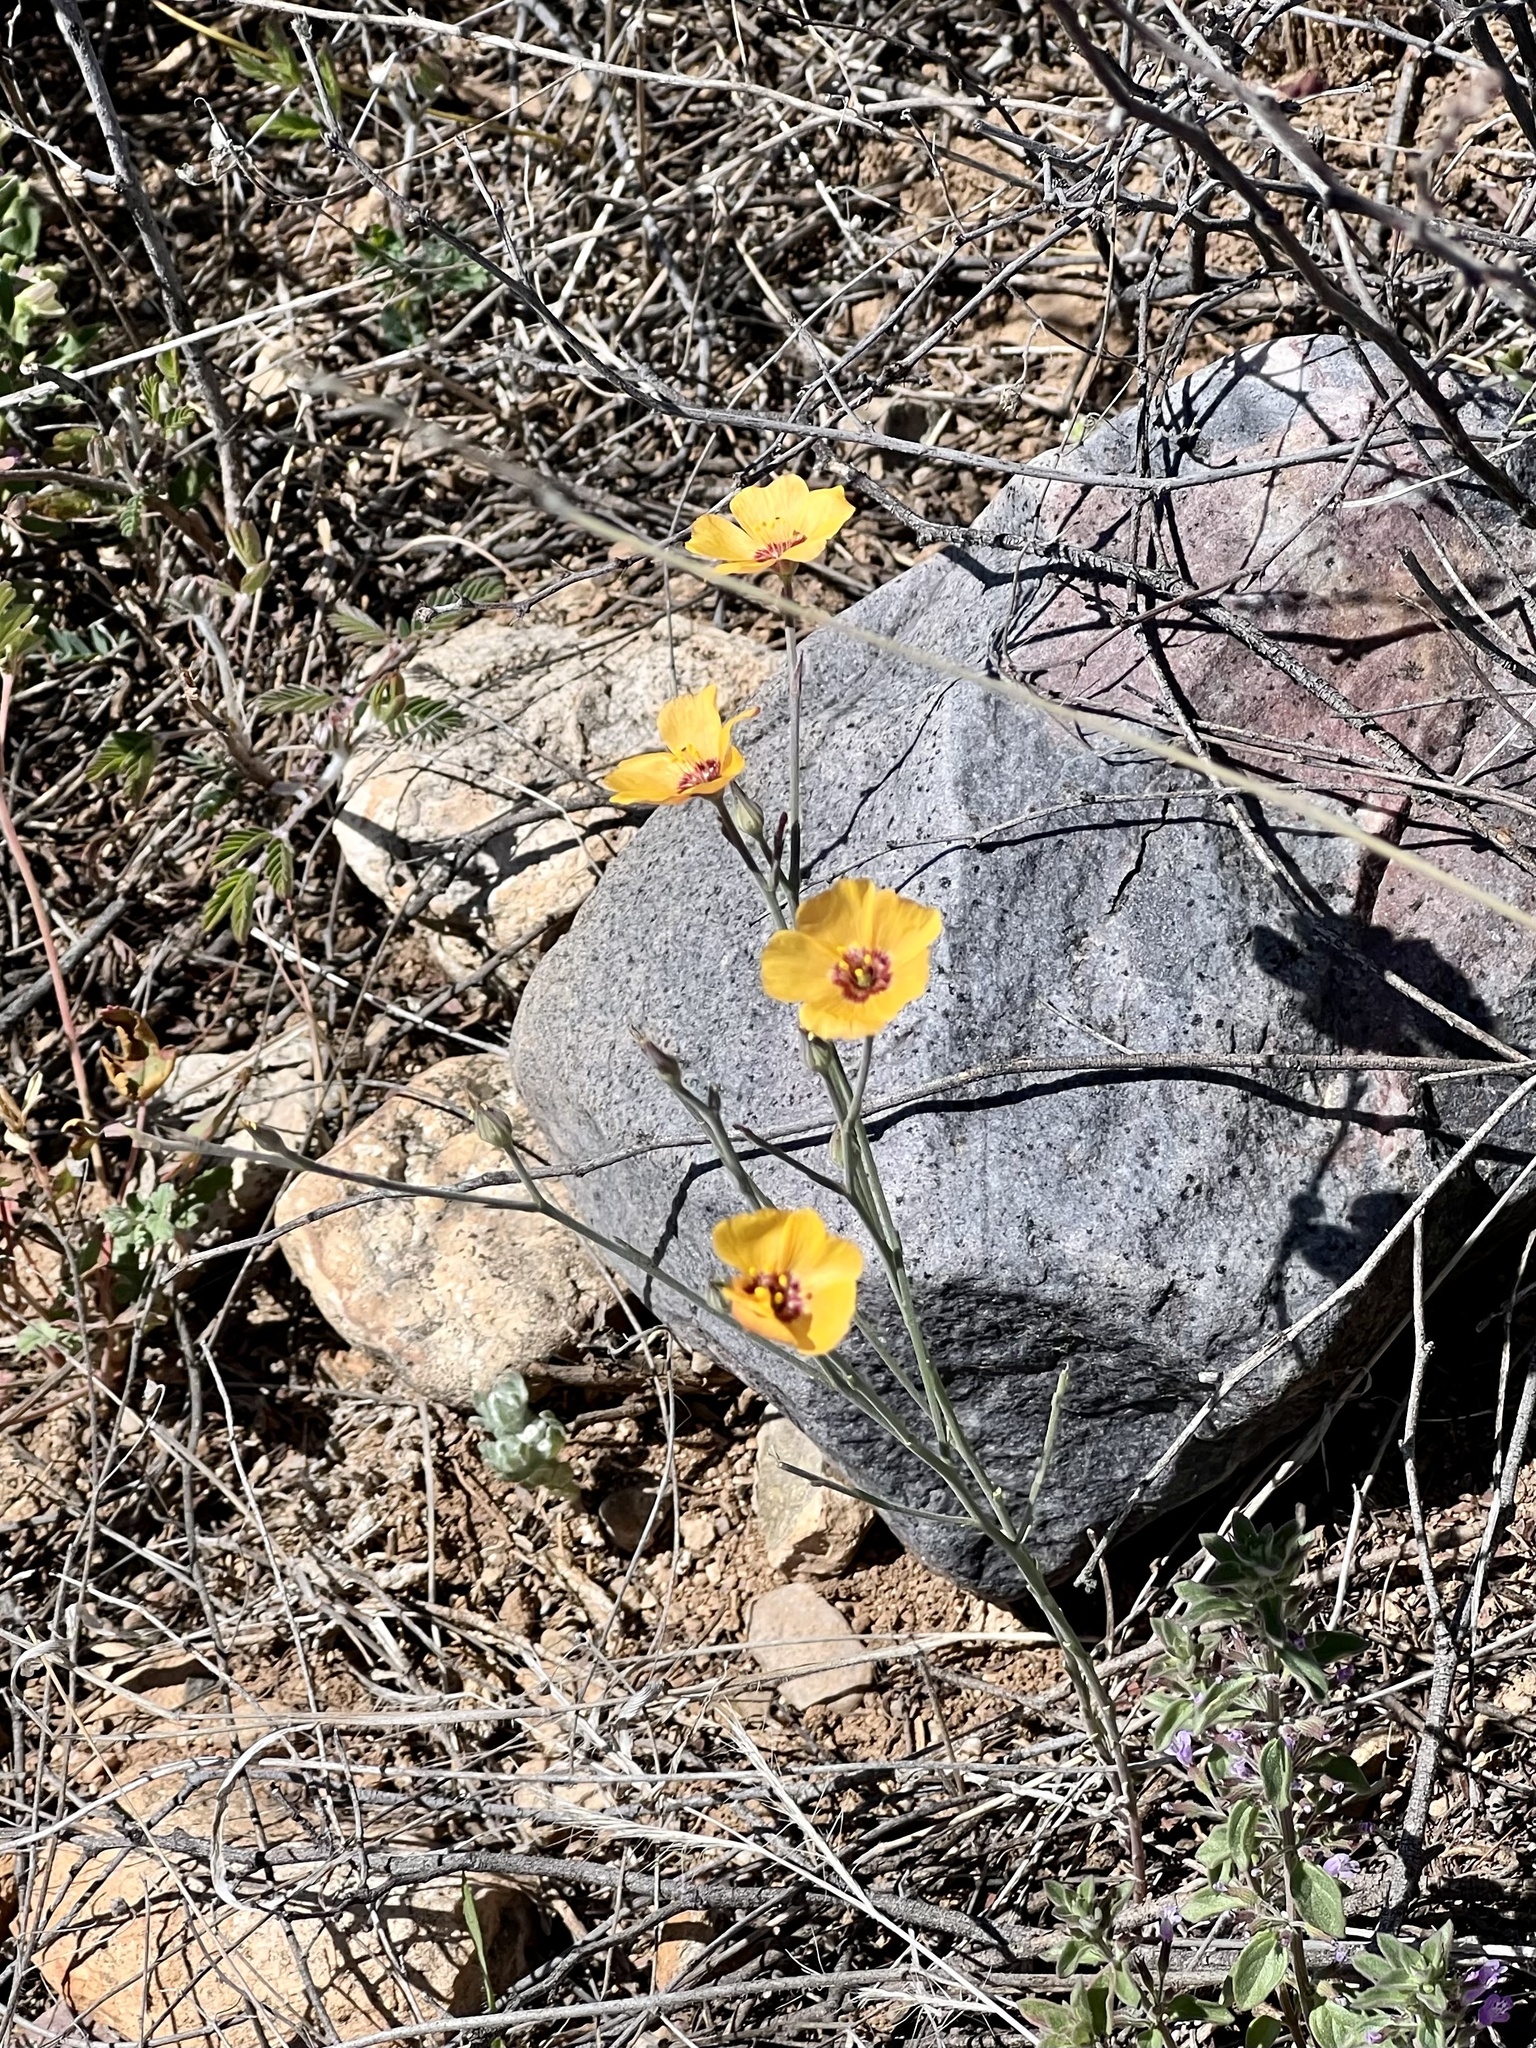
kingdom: Plantae
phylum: Tracheophyta
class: Magnoliopsida
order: Malpighiales
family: Linaceae
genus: Linum
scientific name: Linum puberulum
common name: Plains flax
